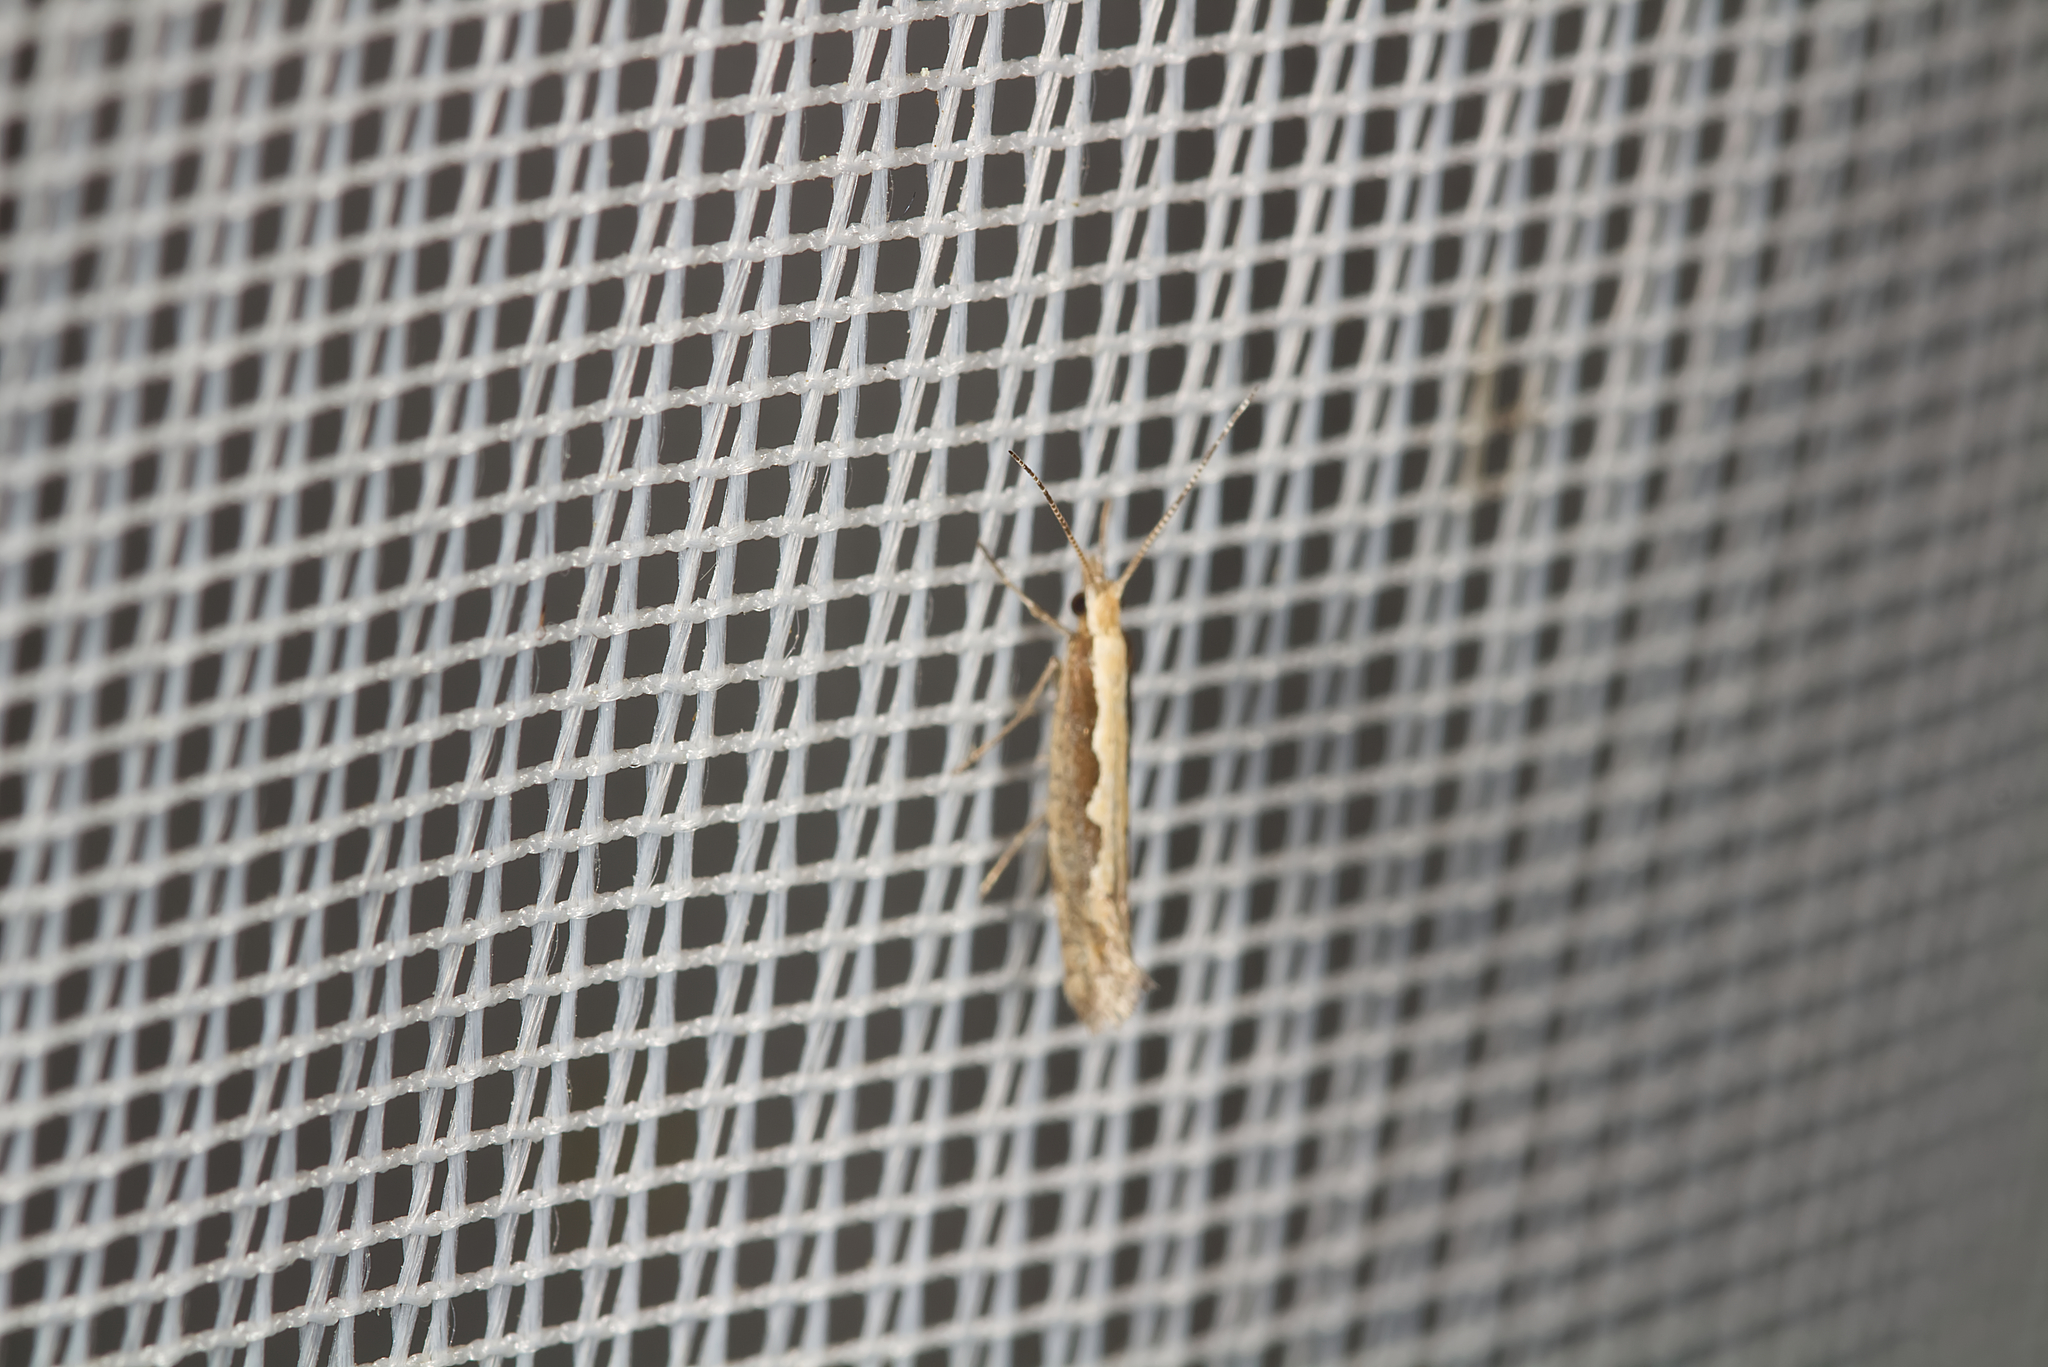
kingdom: Animalia
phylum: Arthropoda
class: Insecta
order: Lepidoptera
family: Plutellidae
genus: Plutella
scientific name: Plutella xylostella
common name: Diamond-back moth
